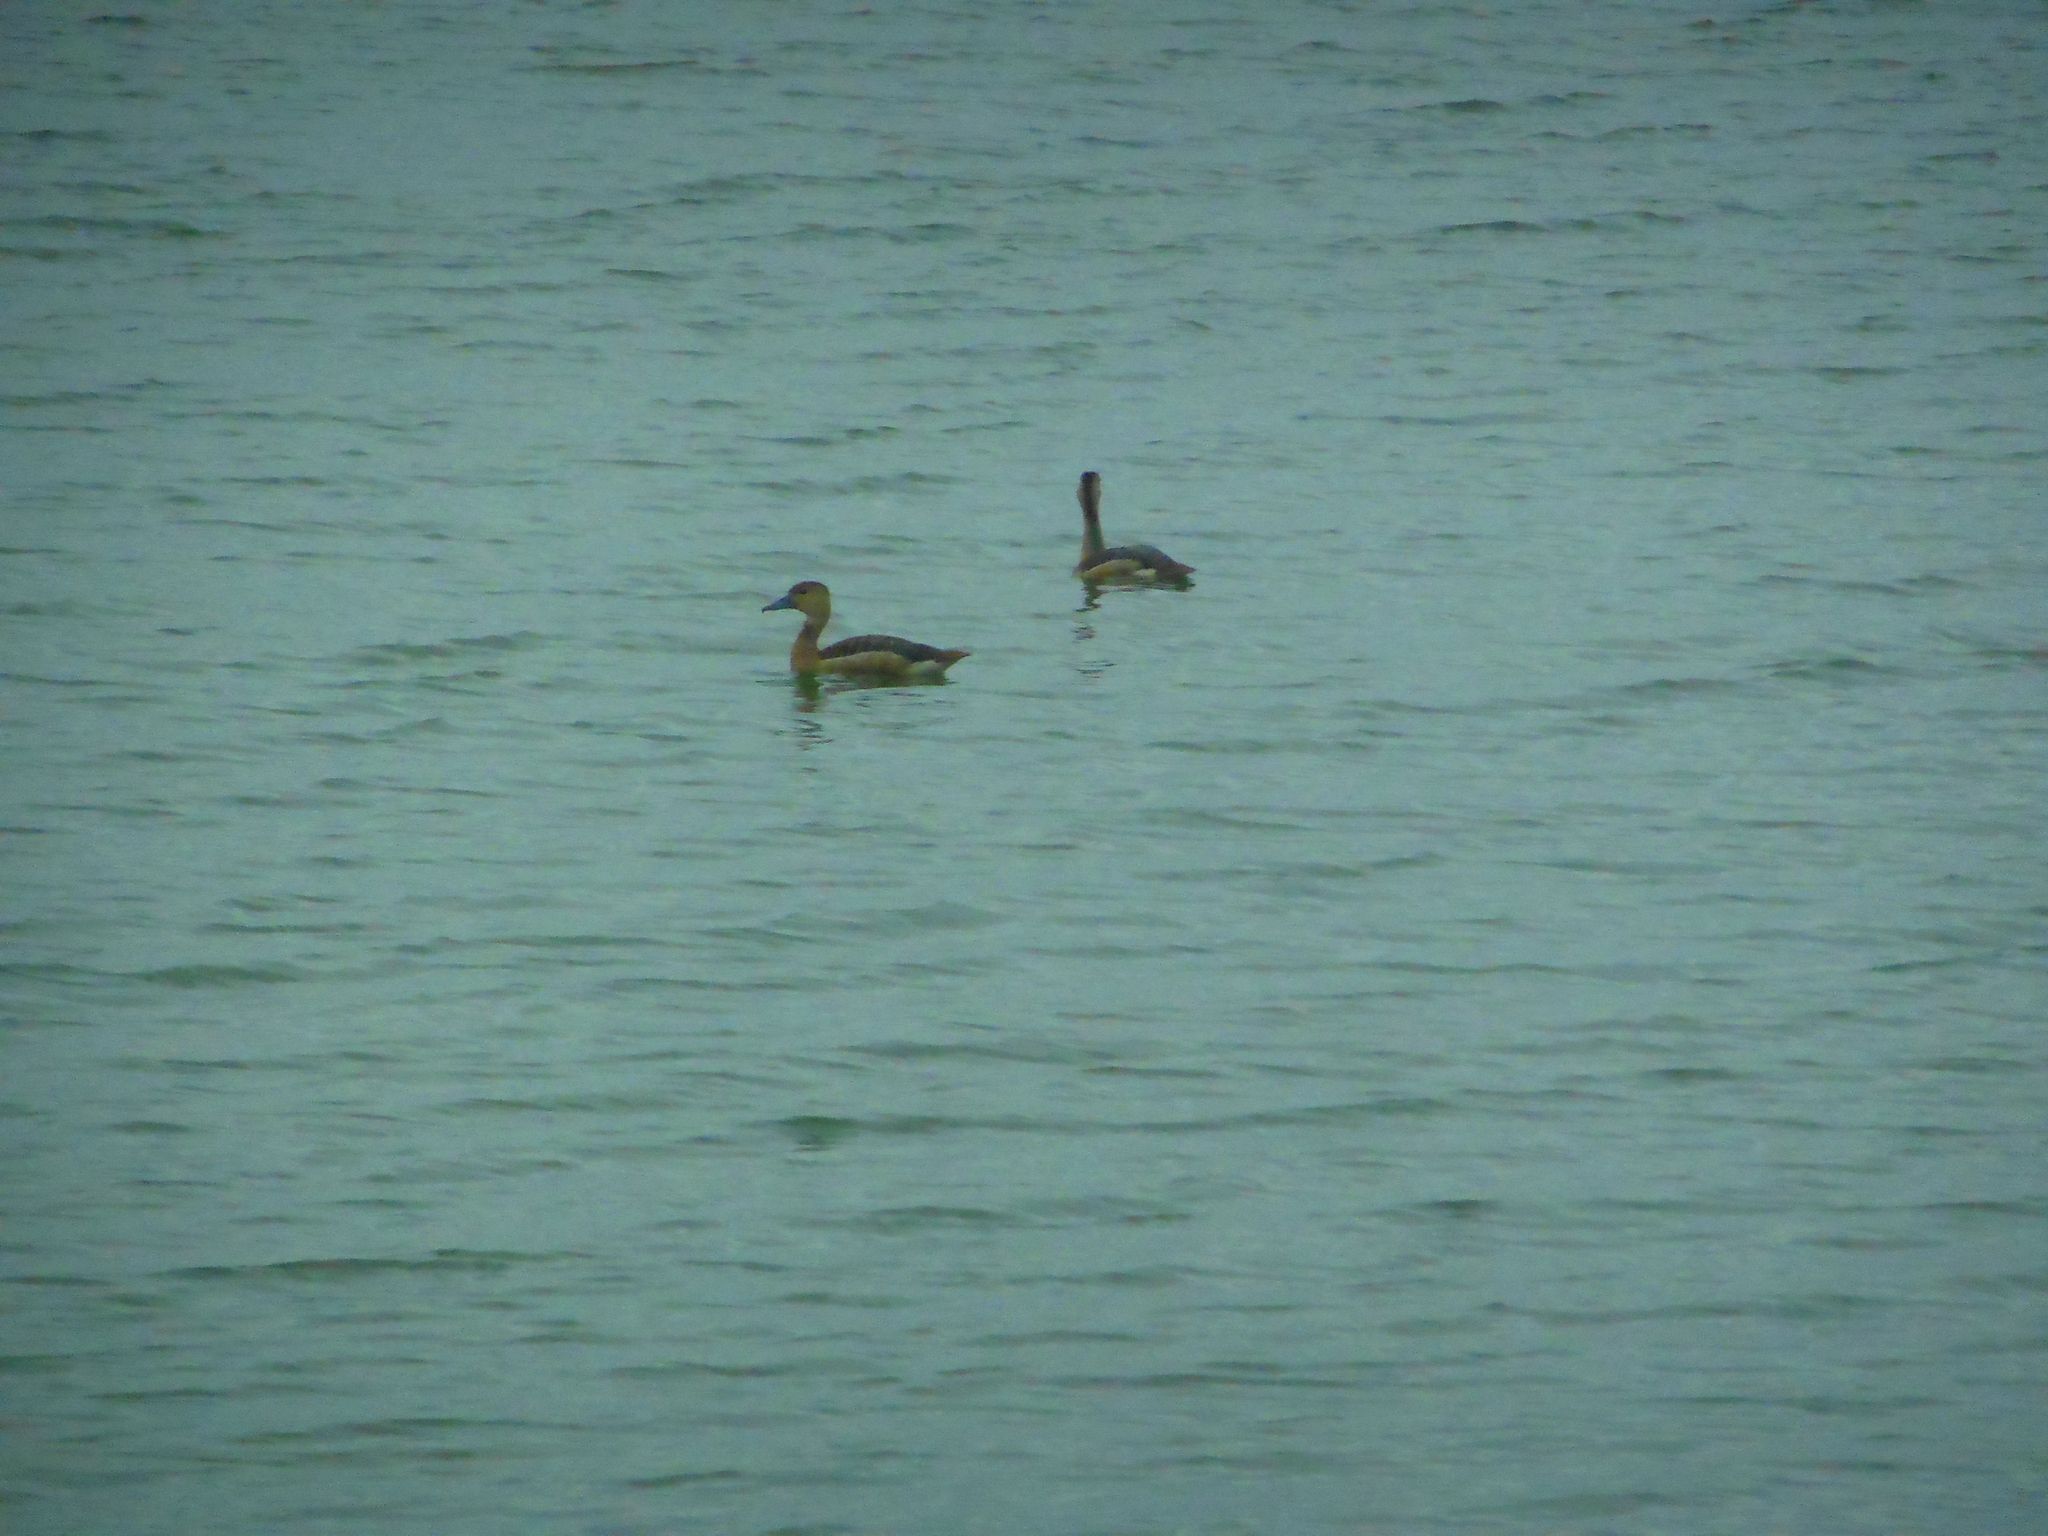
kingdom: Animalia
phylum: Chordata
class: Aves
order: Anseriformes
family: Anatidae
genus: Dendrocygna
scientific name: Dendrocygna javanica
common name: Lesser whistling-duck
